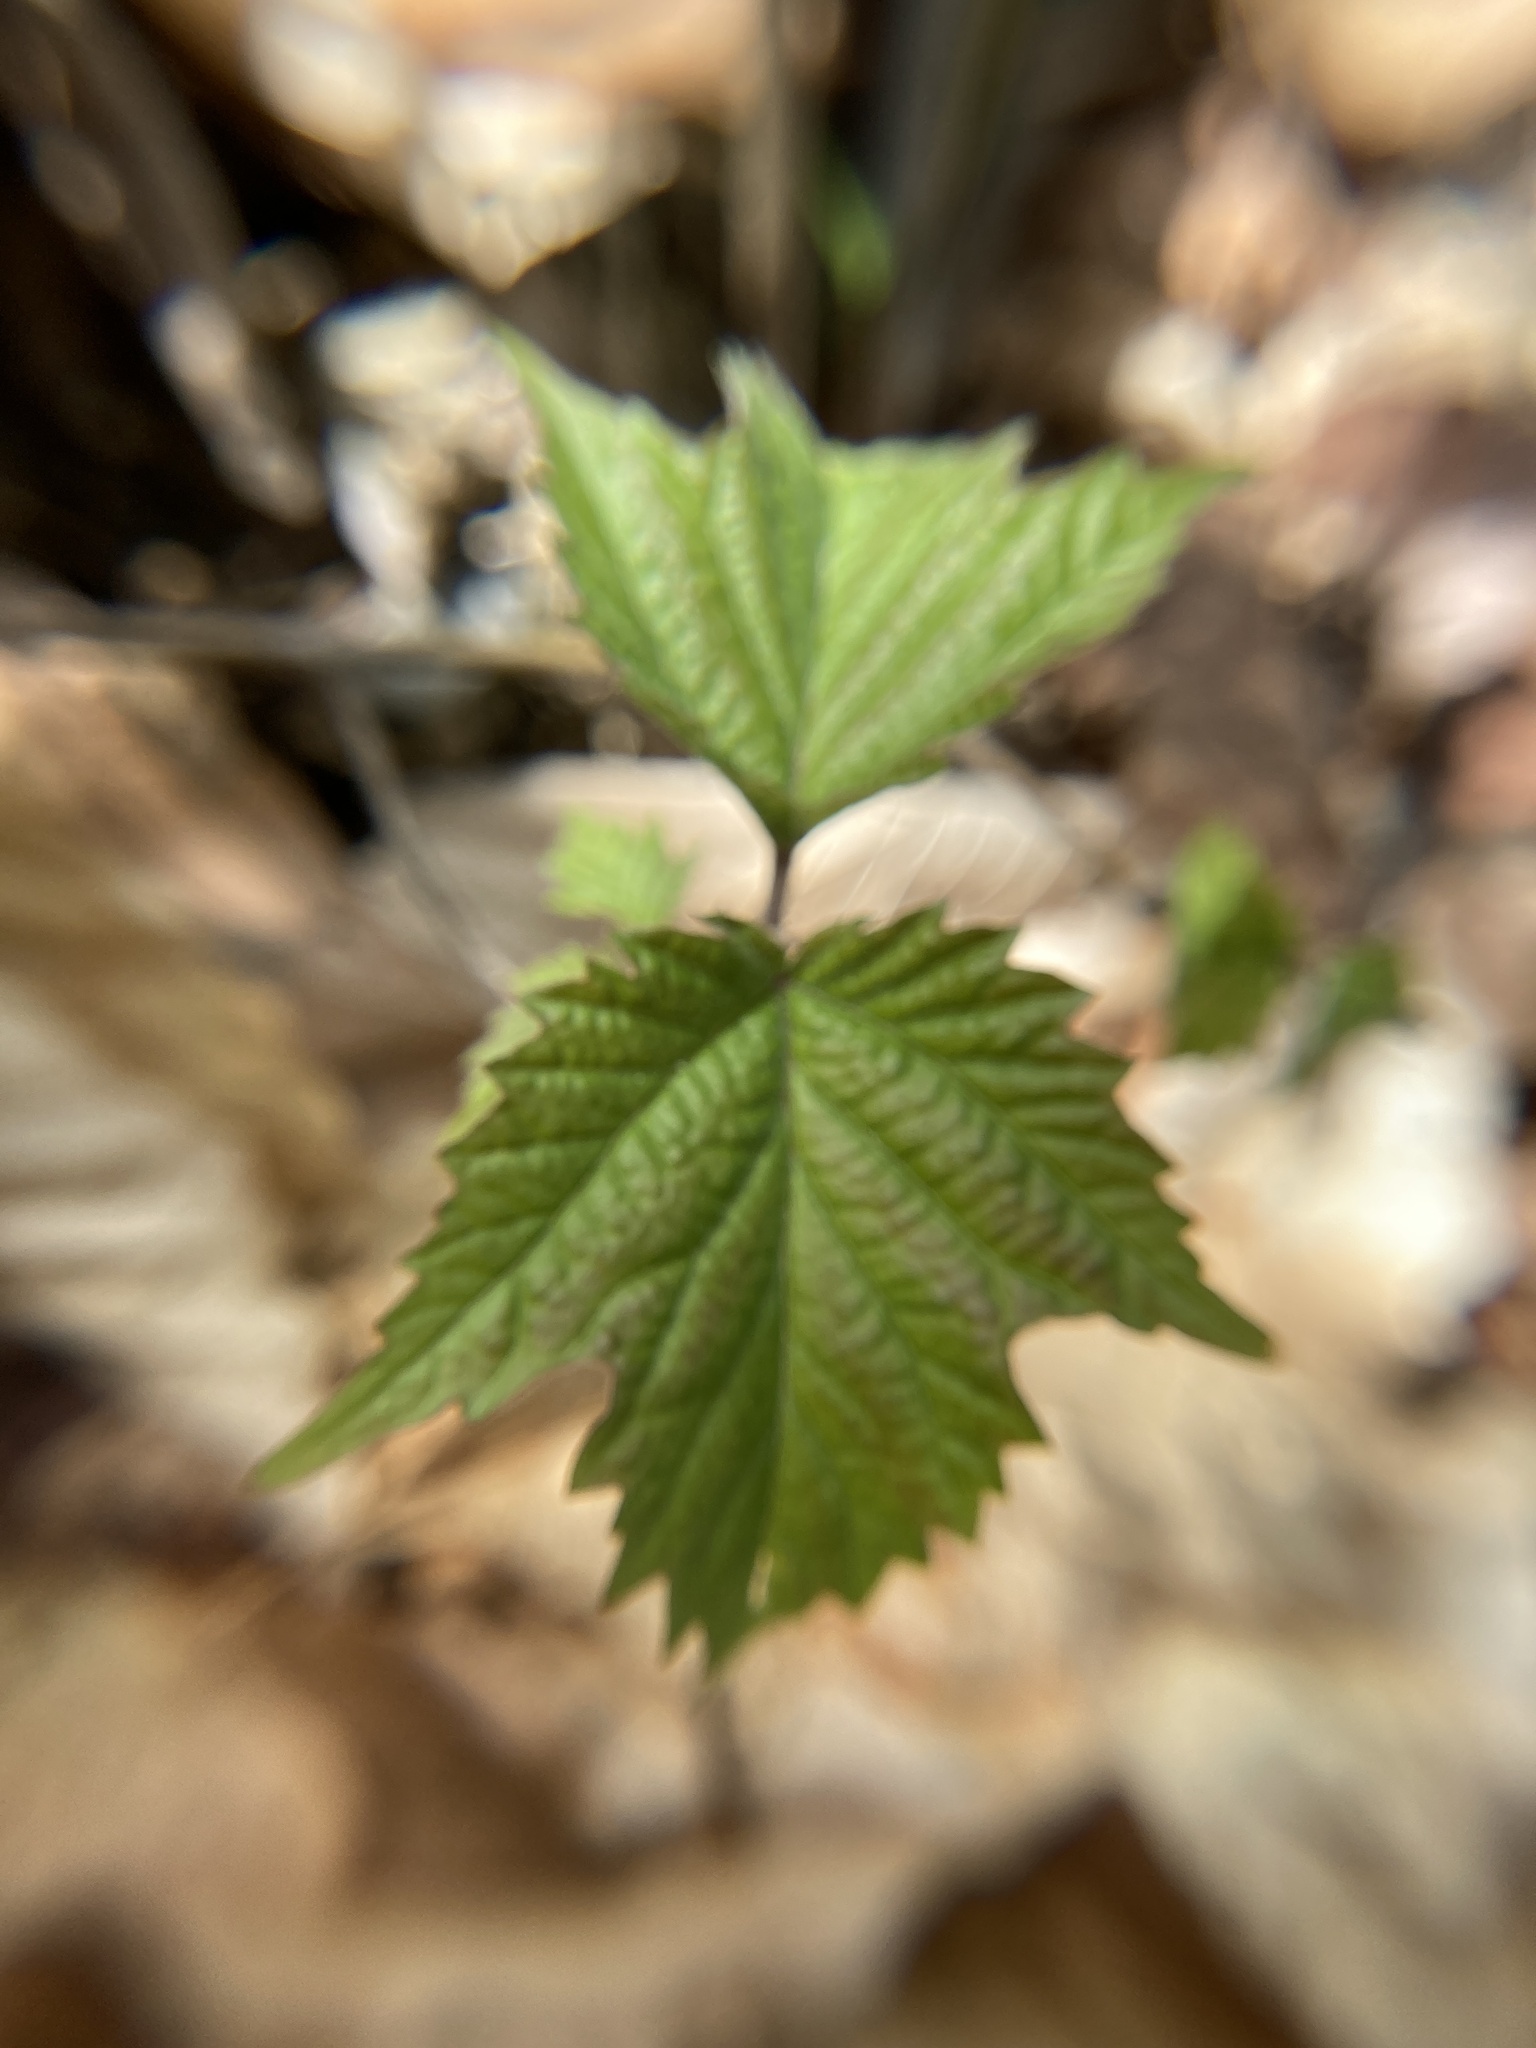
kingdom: Plantae
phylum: Tracheophyta
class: Magnoliopsida
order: Dipsacales
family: Viburnaceae
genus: Viburnum
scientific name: Viburnum acerifolium
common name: Dockmackie
